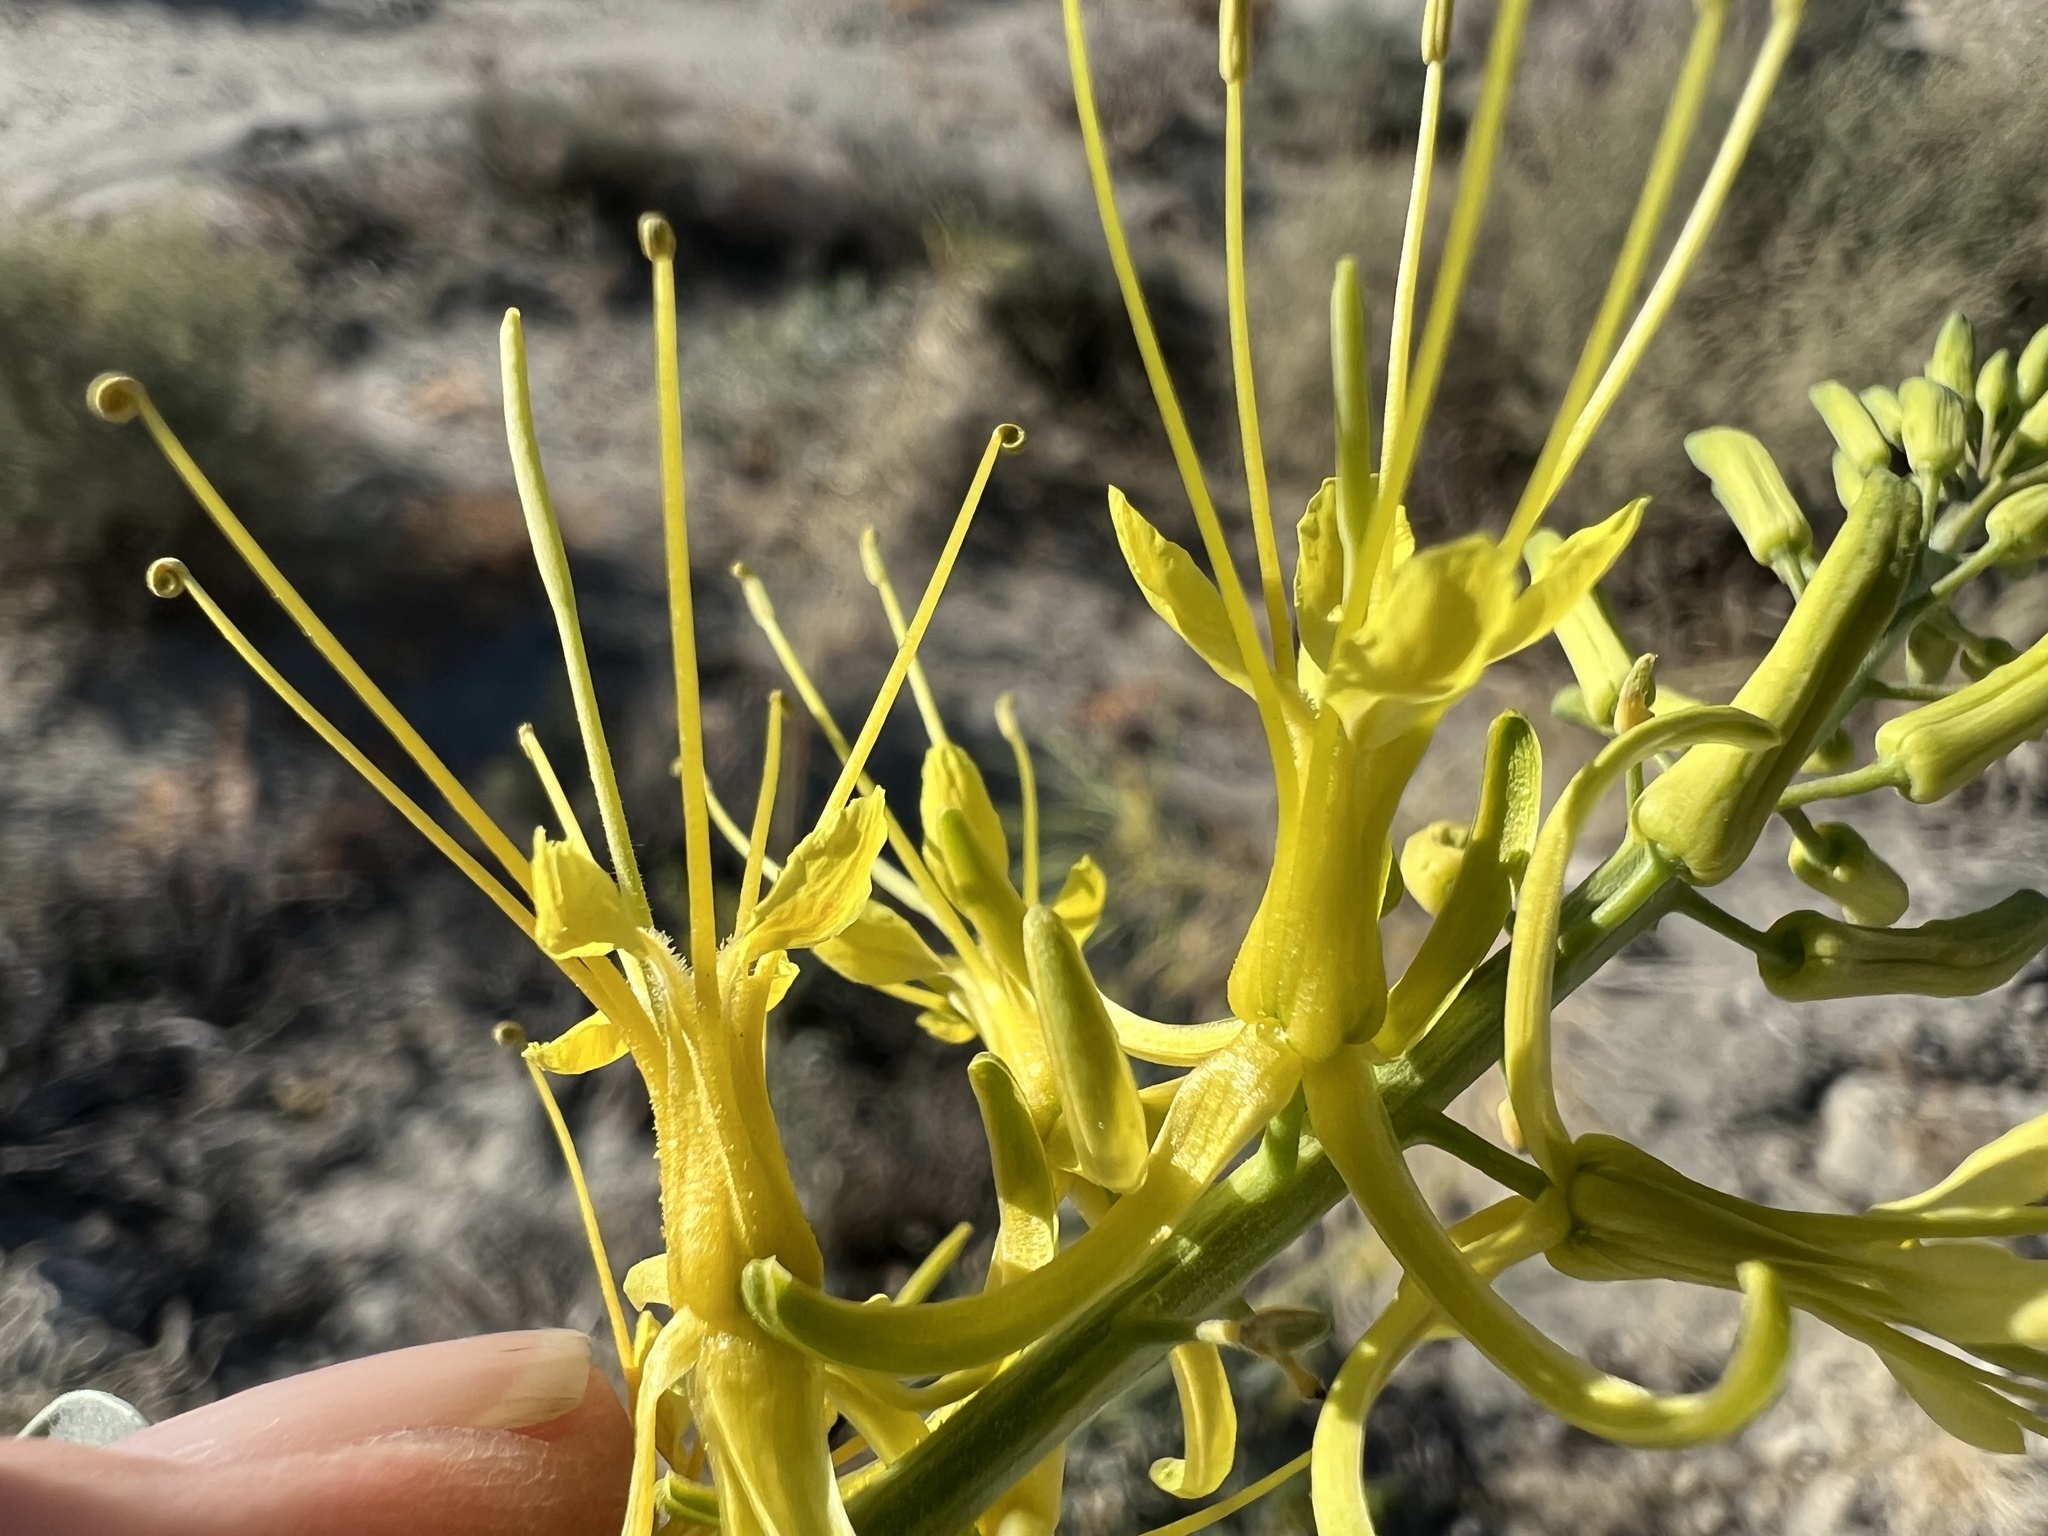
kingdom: Plantae
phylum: Tracheophyta
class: Magnoliopsida
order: Brassicales
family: Brassicaceae
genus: Stanleya
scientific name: Stanleya pinnata
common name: Prince's-plume
